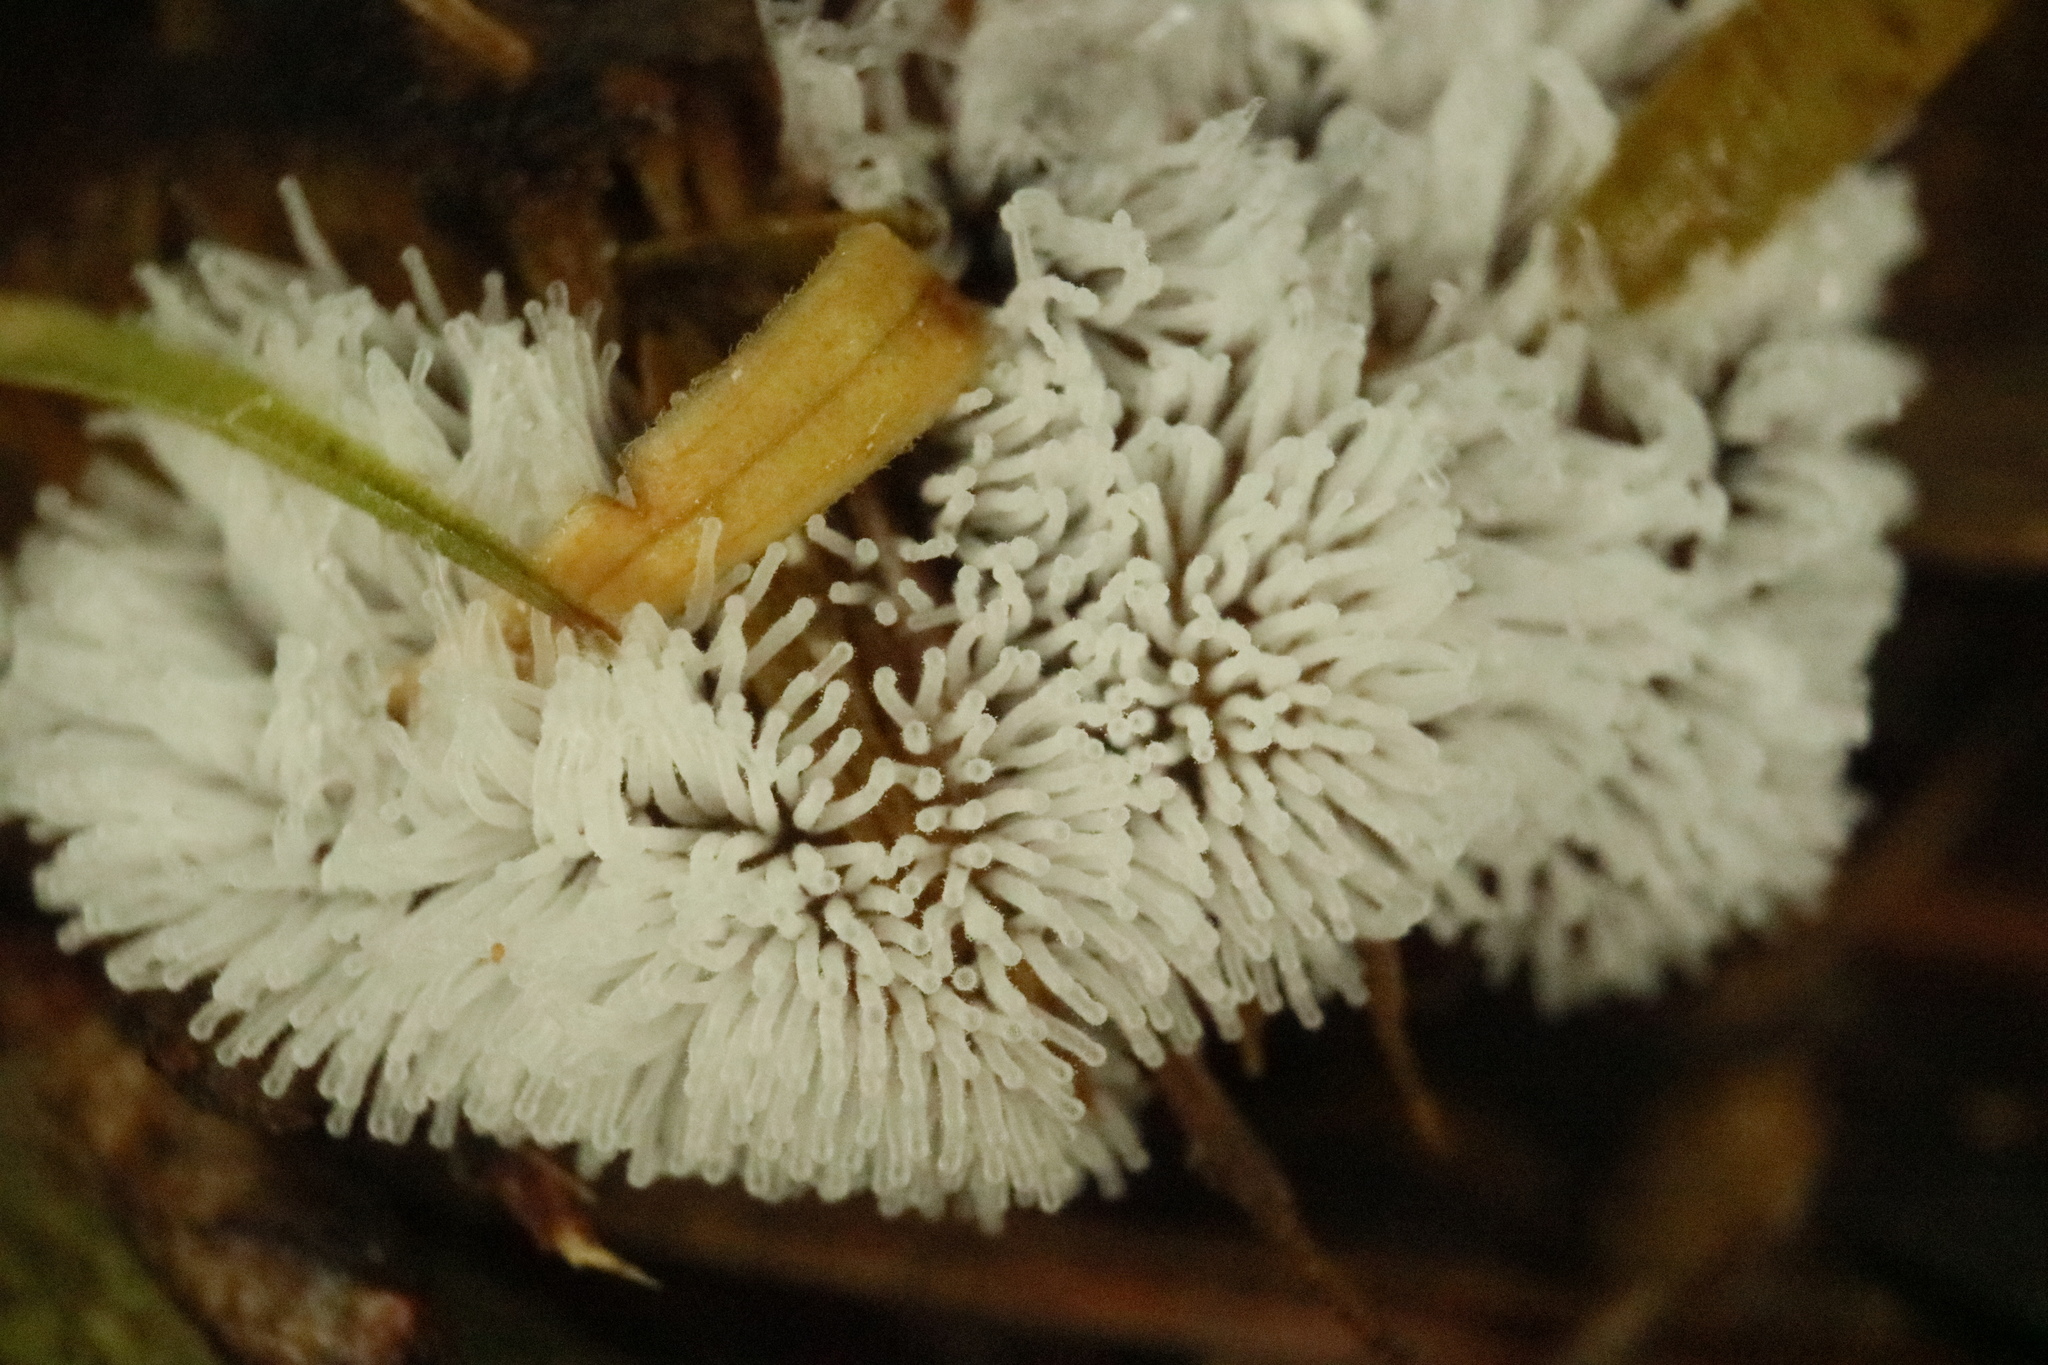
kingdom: Protozoa
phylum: Mycetozoa
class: Protosteliomycetes
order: Ceratiomyxales
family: Ceratiomyxaceae
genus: Ceratiomyxa
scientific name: Ceratiomyxa fruticulosa
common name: Honeycomb coral slime mold
